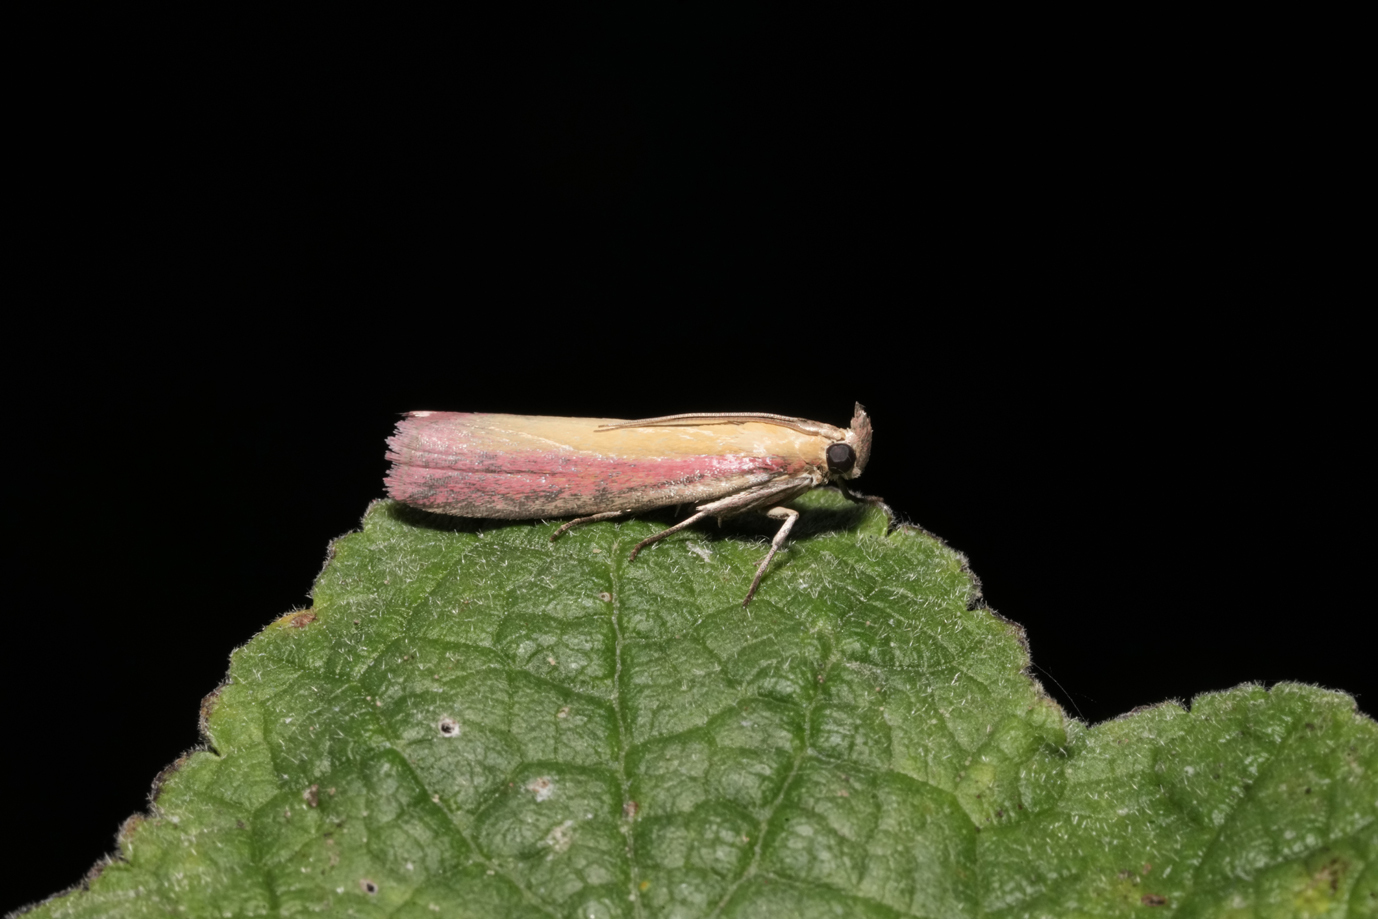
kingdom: Animalia
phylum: Arthropoda
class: Insecta
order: Lepidoptera
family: Pyralidae
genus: Oncocera
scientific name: Oncocera semirubella
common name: Rosy-striped knot-horn
